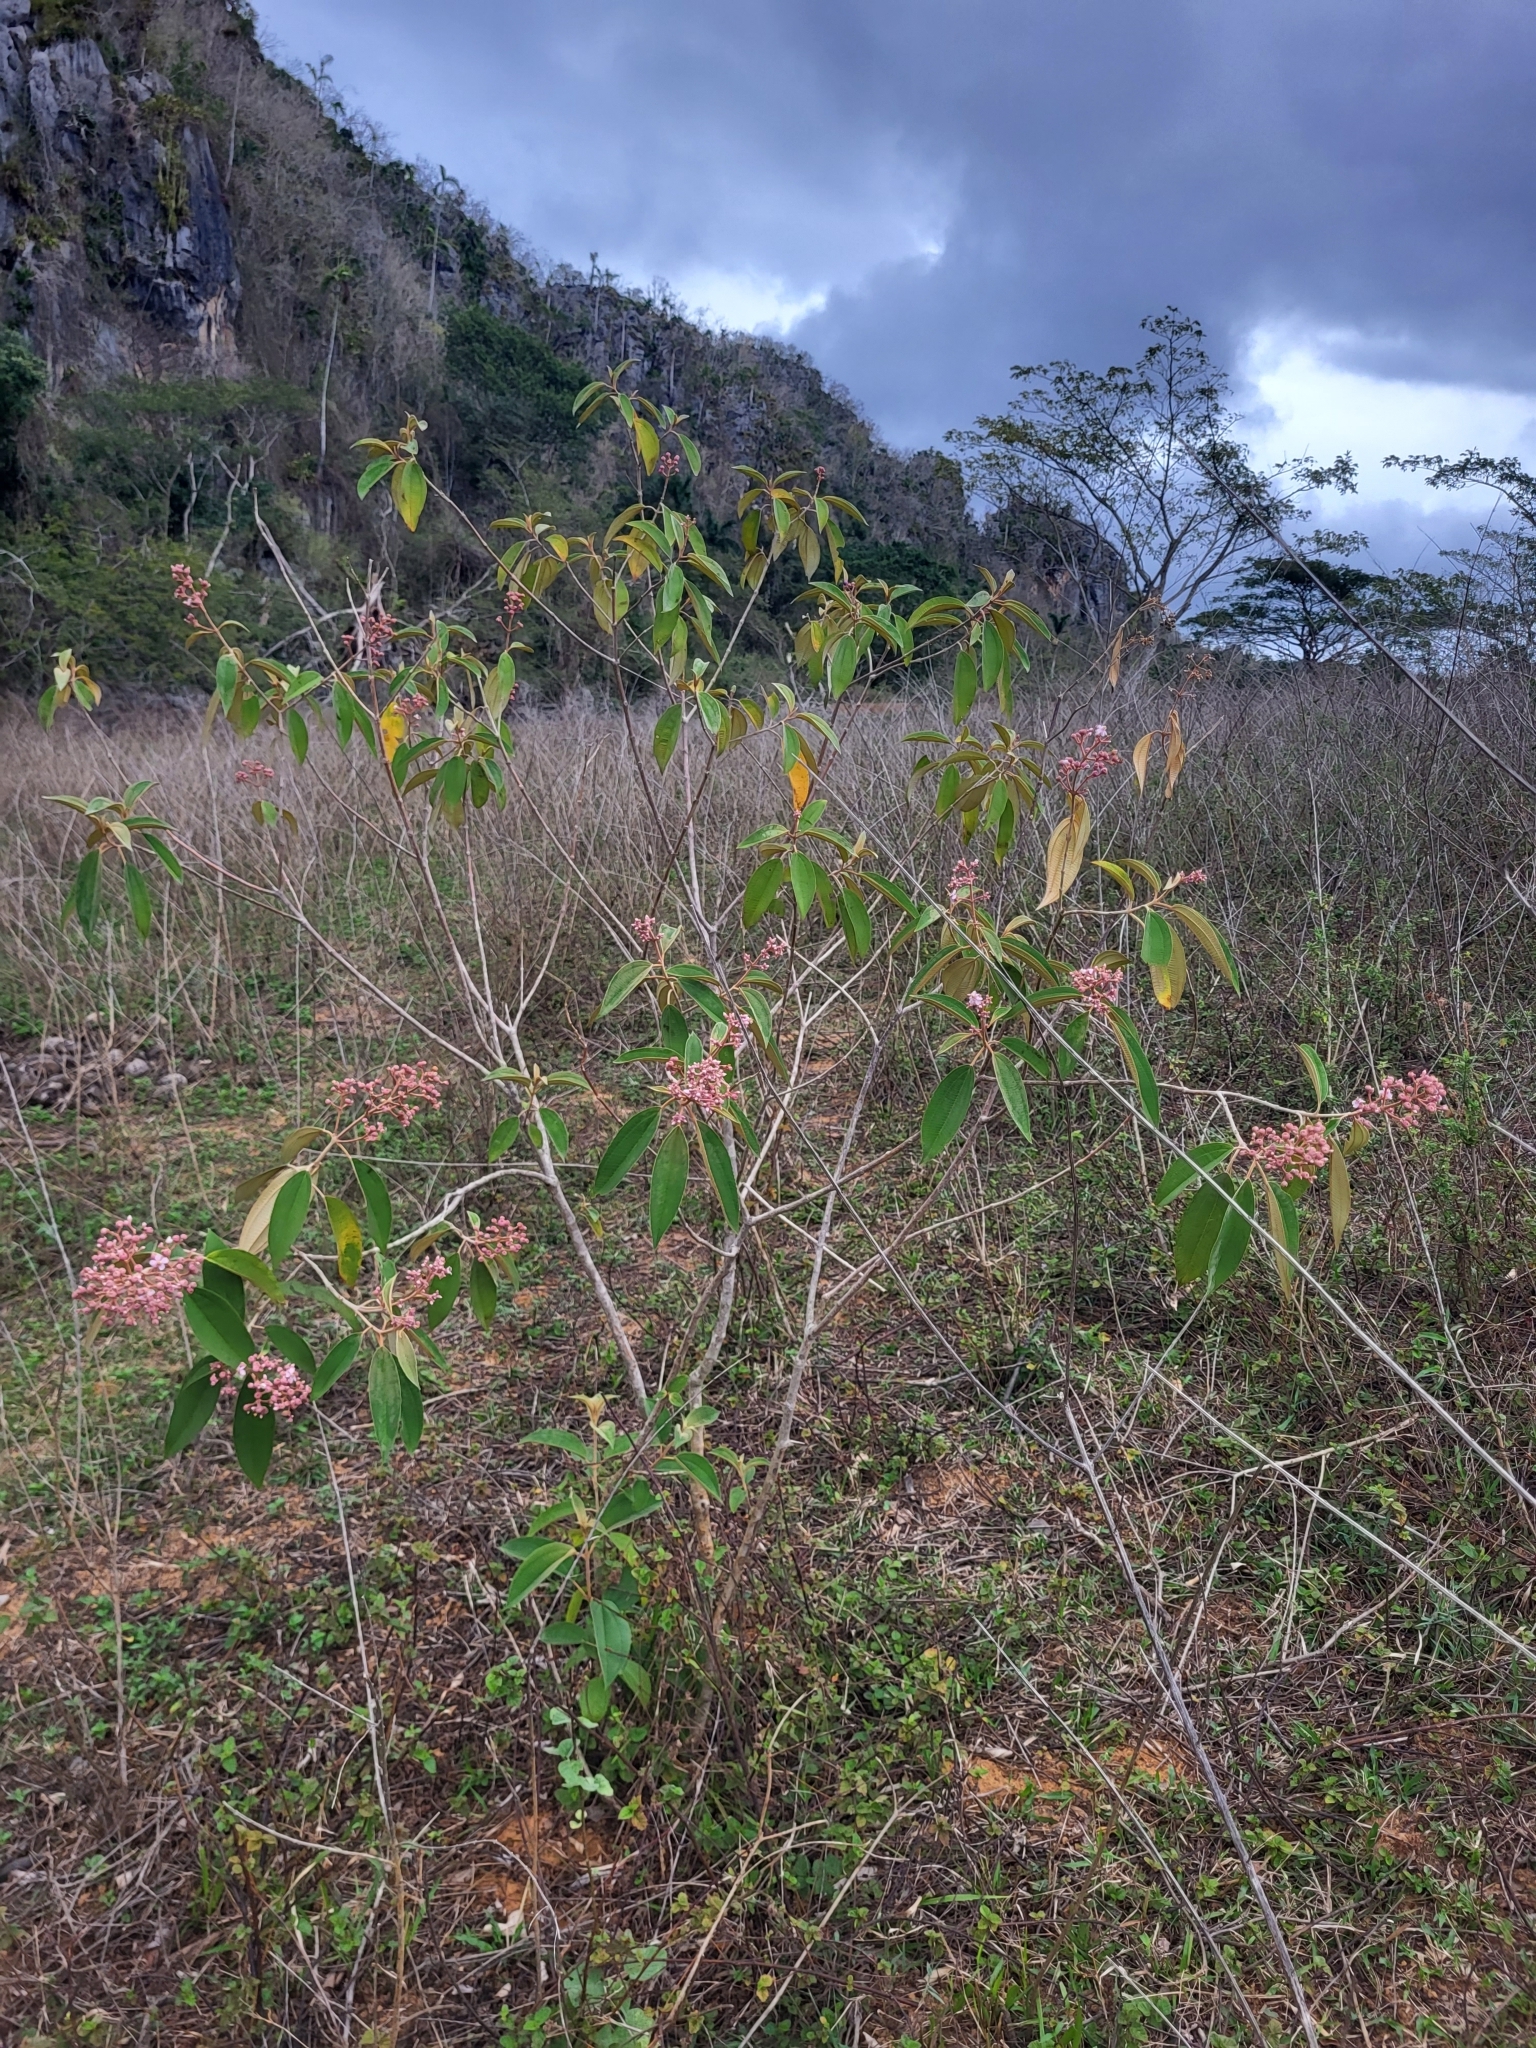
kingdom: Plantae
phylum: Tracheophyta
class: Magnoliopsida
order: Myrtales
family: Melastomataceae
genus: Miconia
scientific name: Miconia xalapensis
